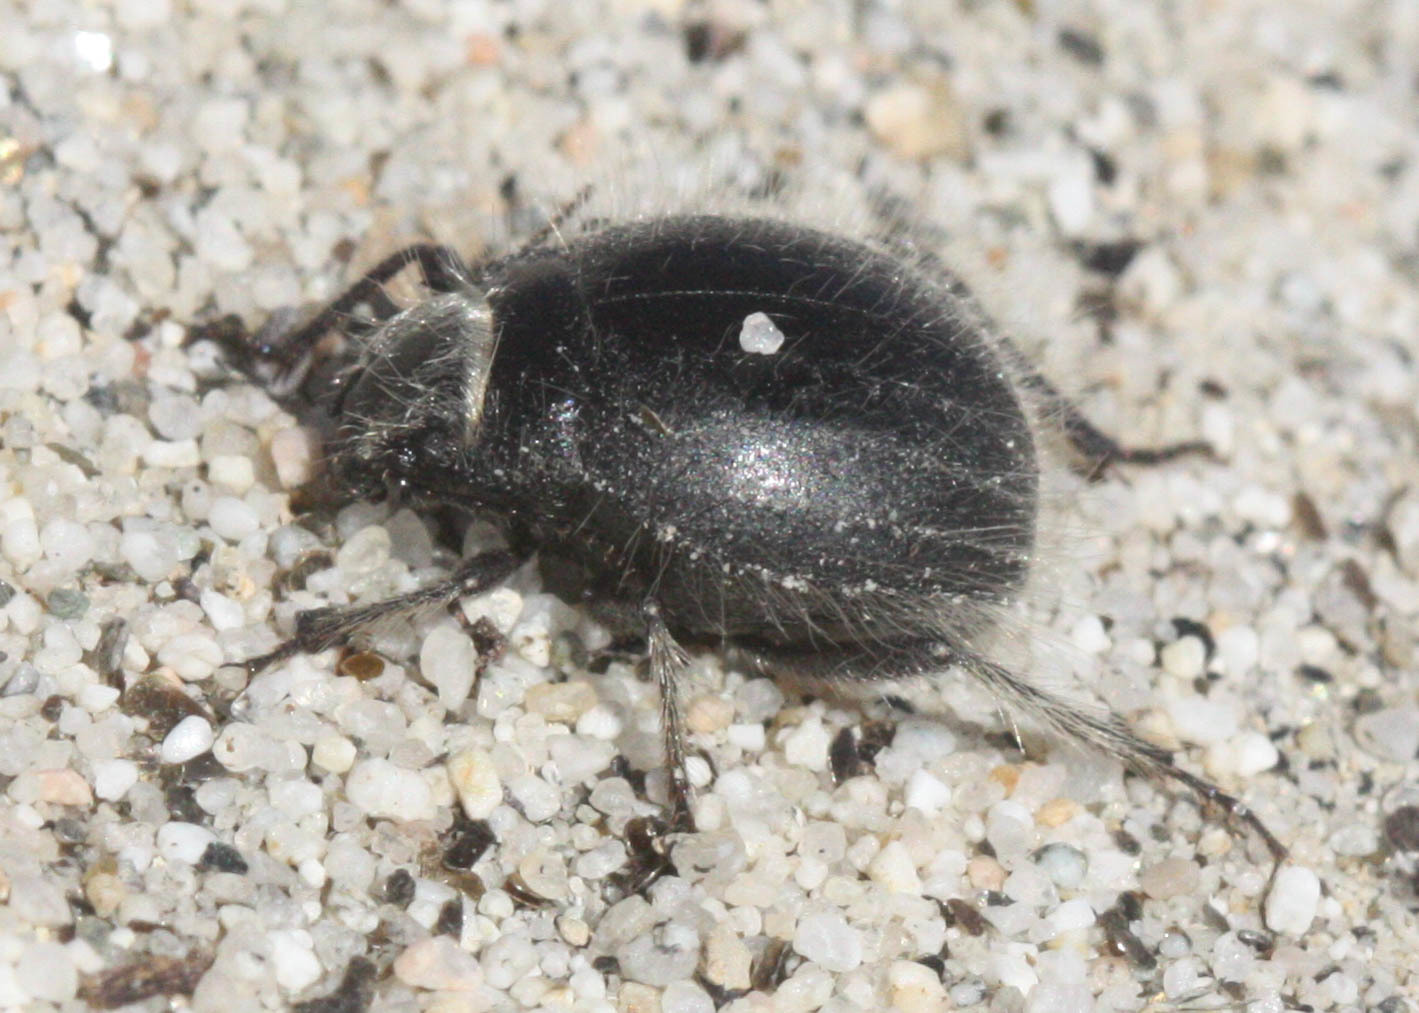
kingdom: Animalia
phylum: Arthropoda
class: Insecta
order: Coleoptera
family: Tenebrionidae
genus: Edrotes
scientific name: Edrotes ventricosus
